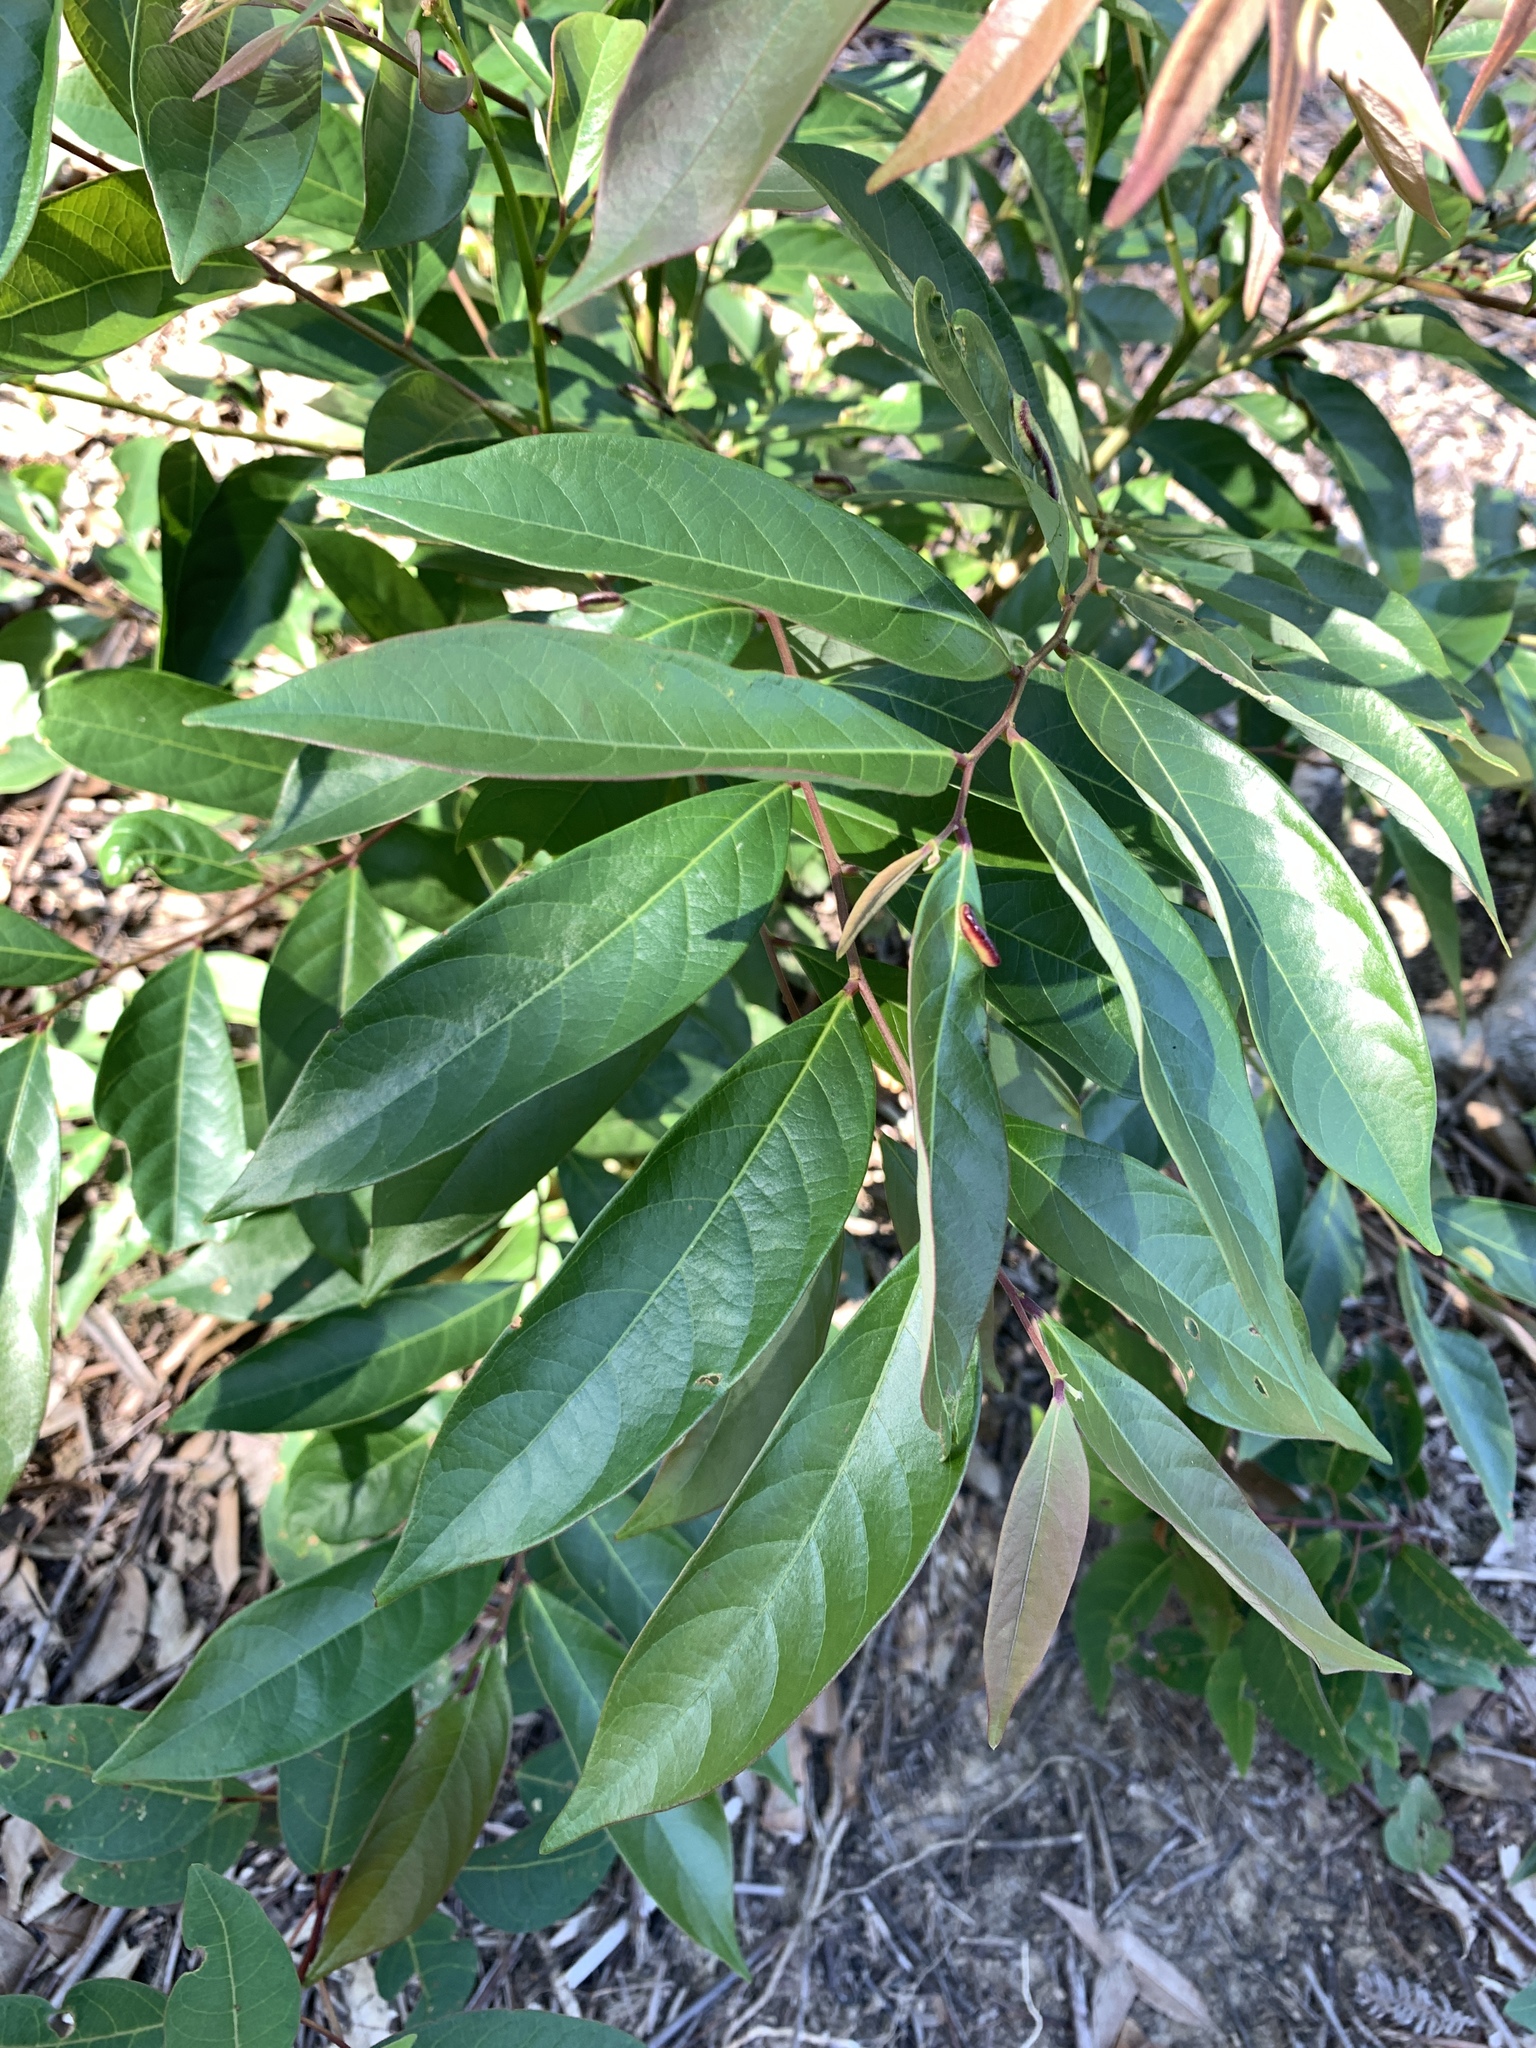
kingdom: Plantae
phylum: Tracheophyta
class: Magnoliopsida
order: Malpighiales
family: Phyllanthaceae
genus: Glochidion
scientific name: Glochidion acuminatum
